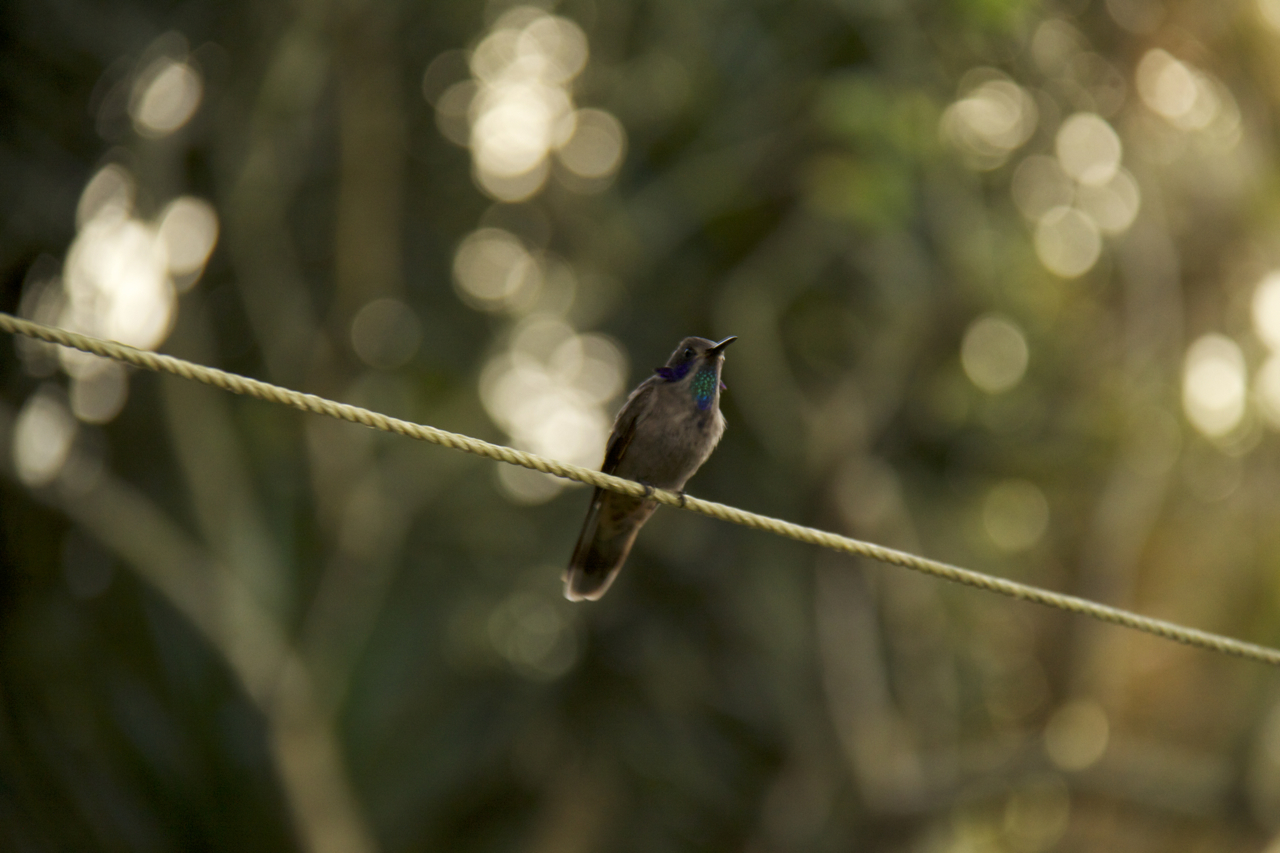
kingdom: Animalia
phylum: Chordata
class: Aves
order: Apodiformes
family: Trochilidae
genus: Colibri
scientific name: Colibri delphinae
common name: Brown violetear
